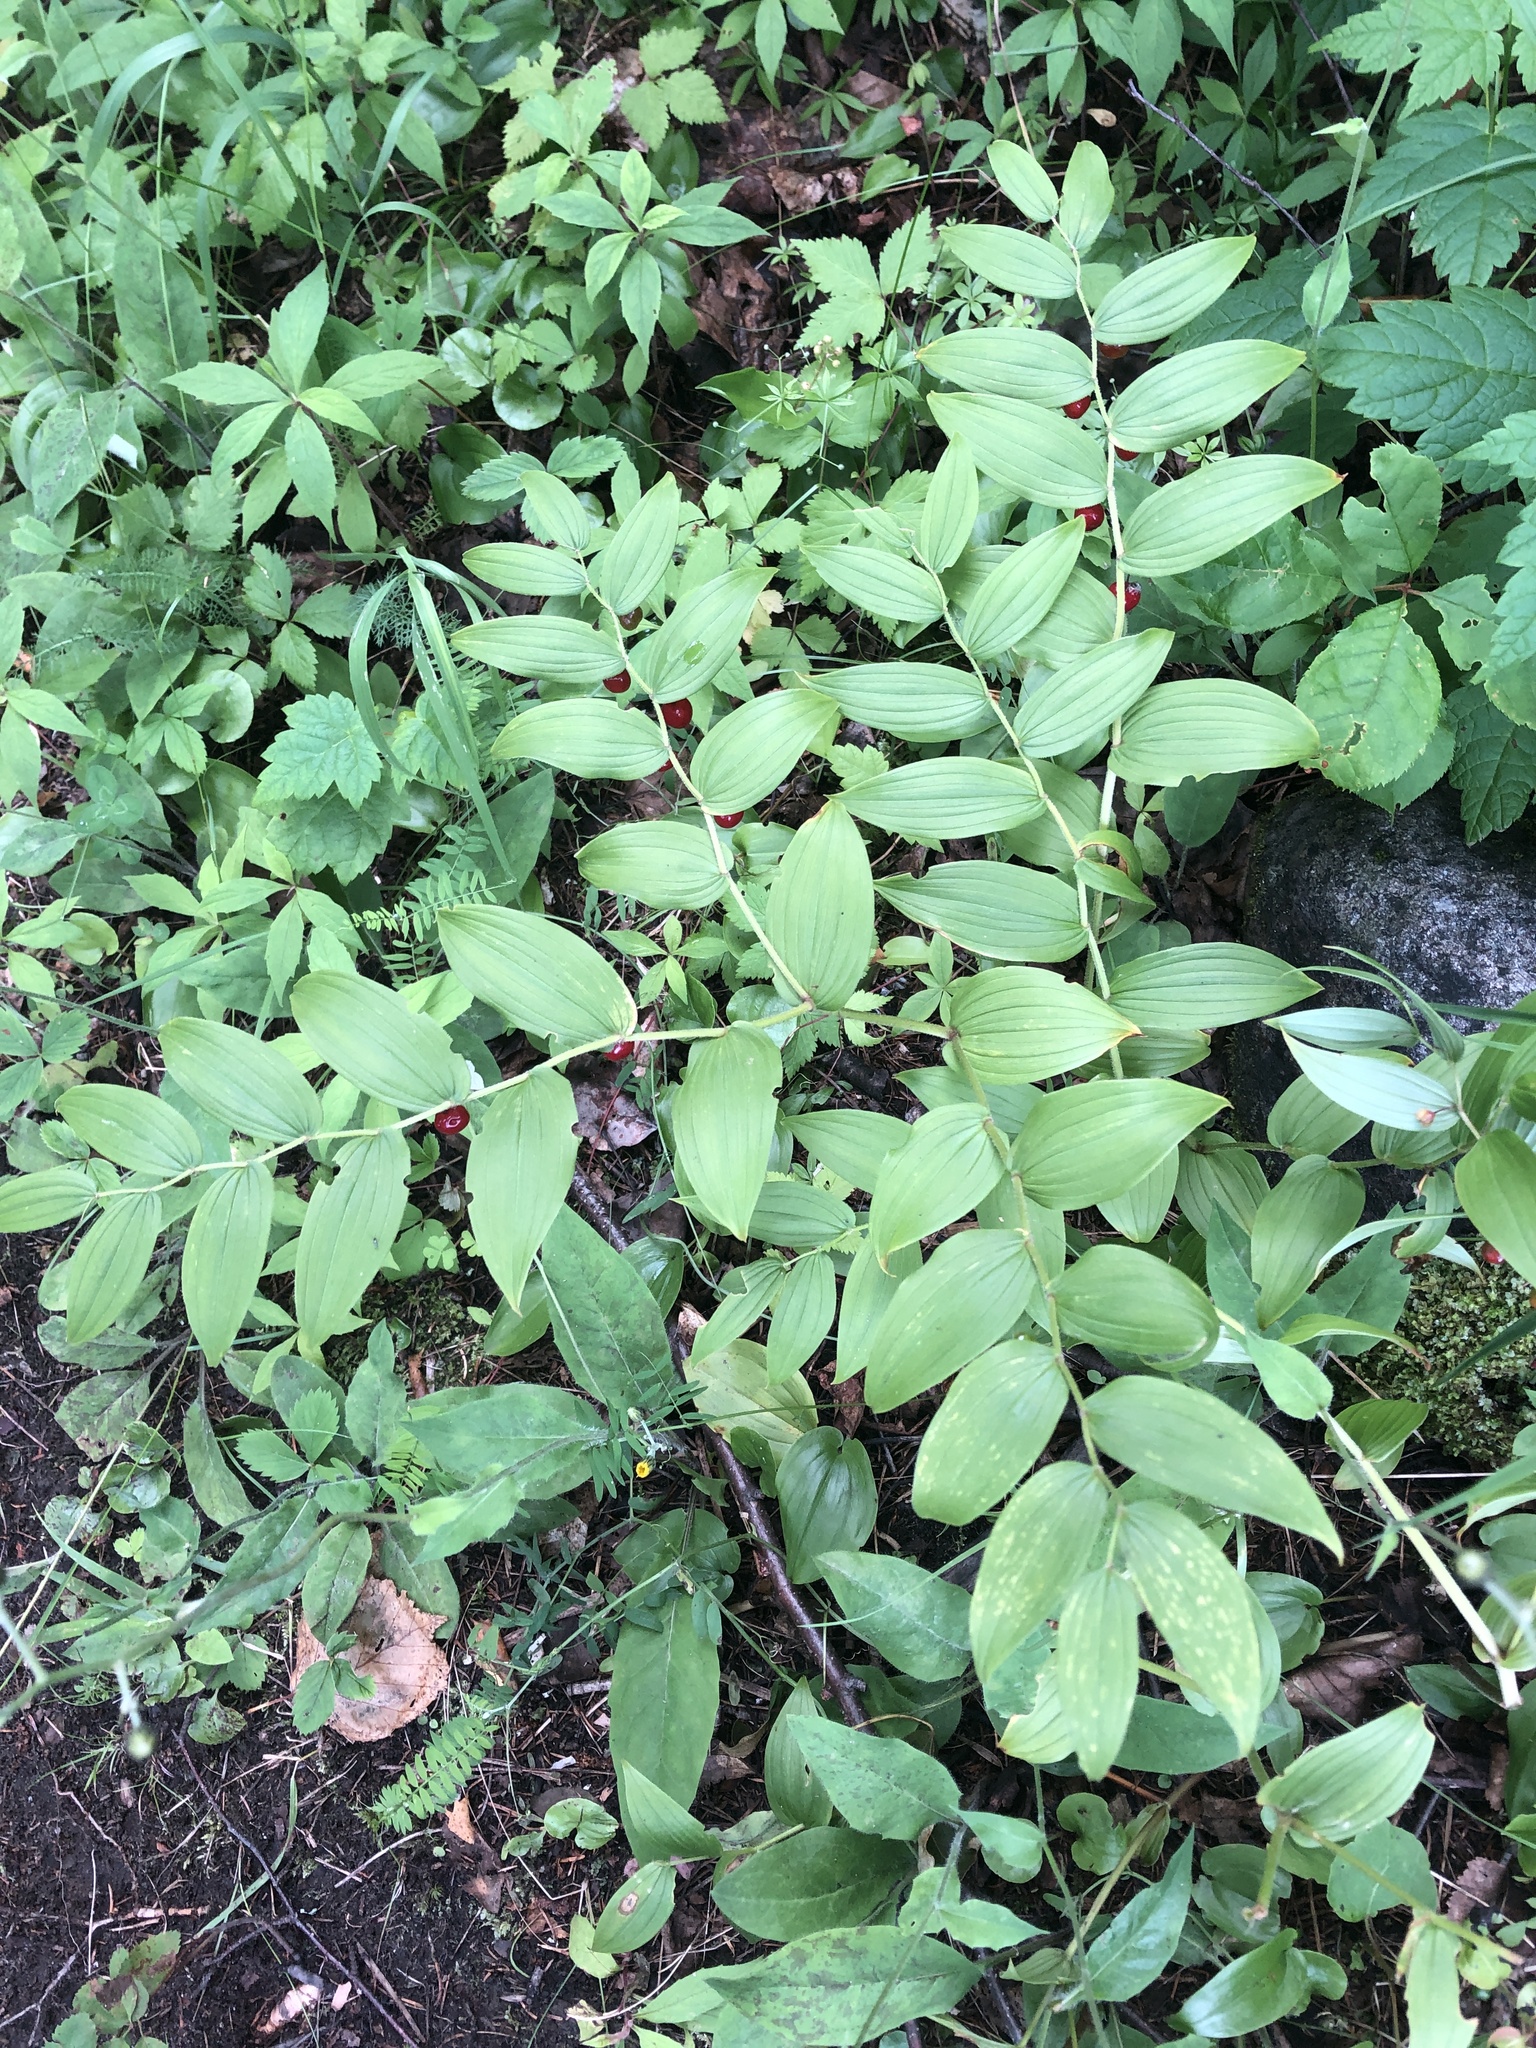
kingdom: Plantae
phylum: Tracheophyta
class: Liliopsida
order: Liliales
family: Liliaceae
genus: Streptopus
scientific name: Streptopus lanceolatus
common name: Rose mandarin
